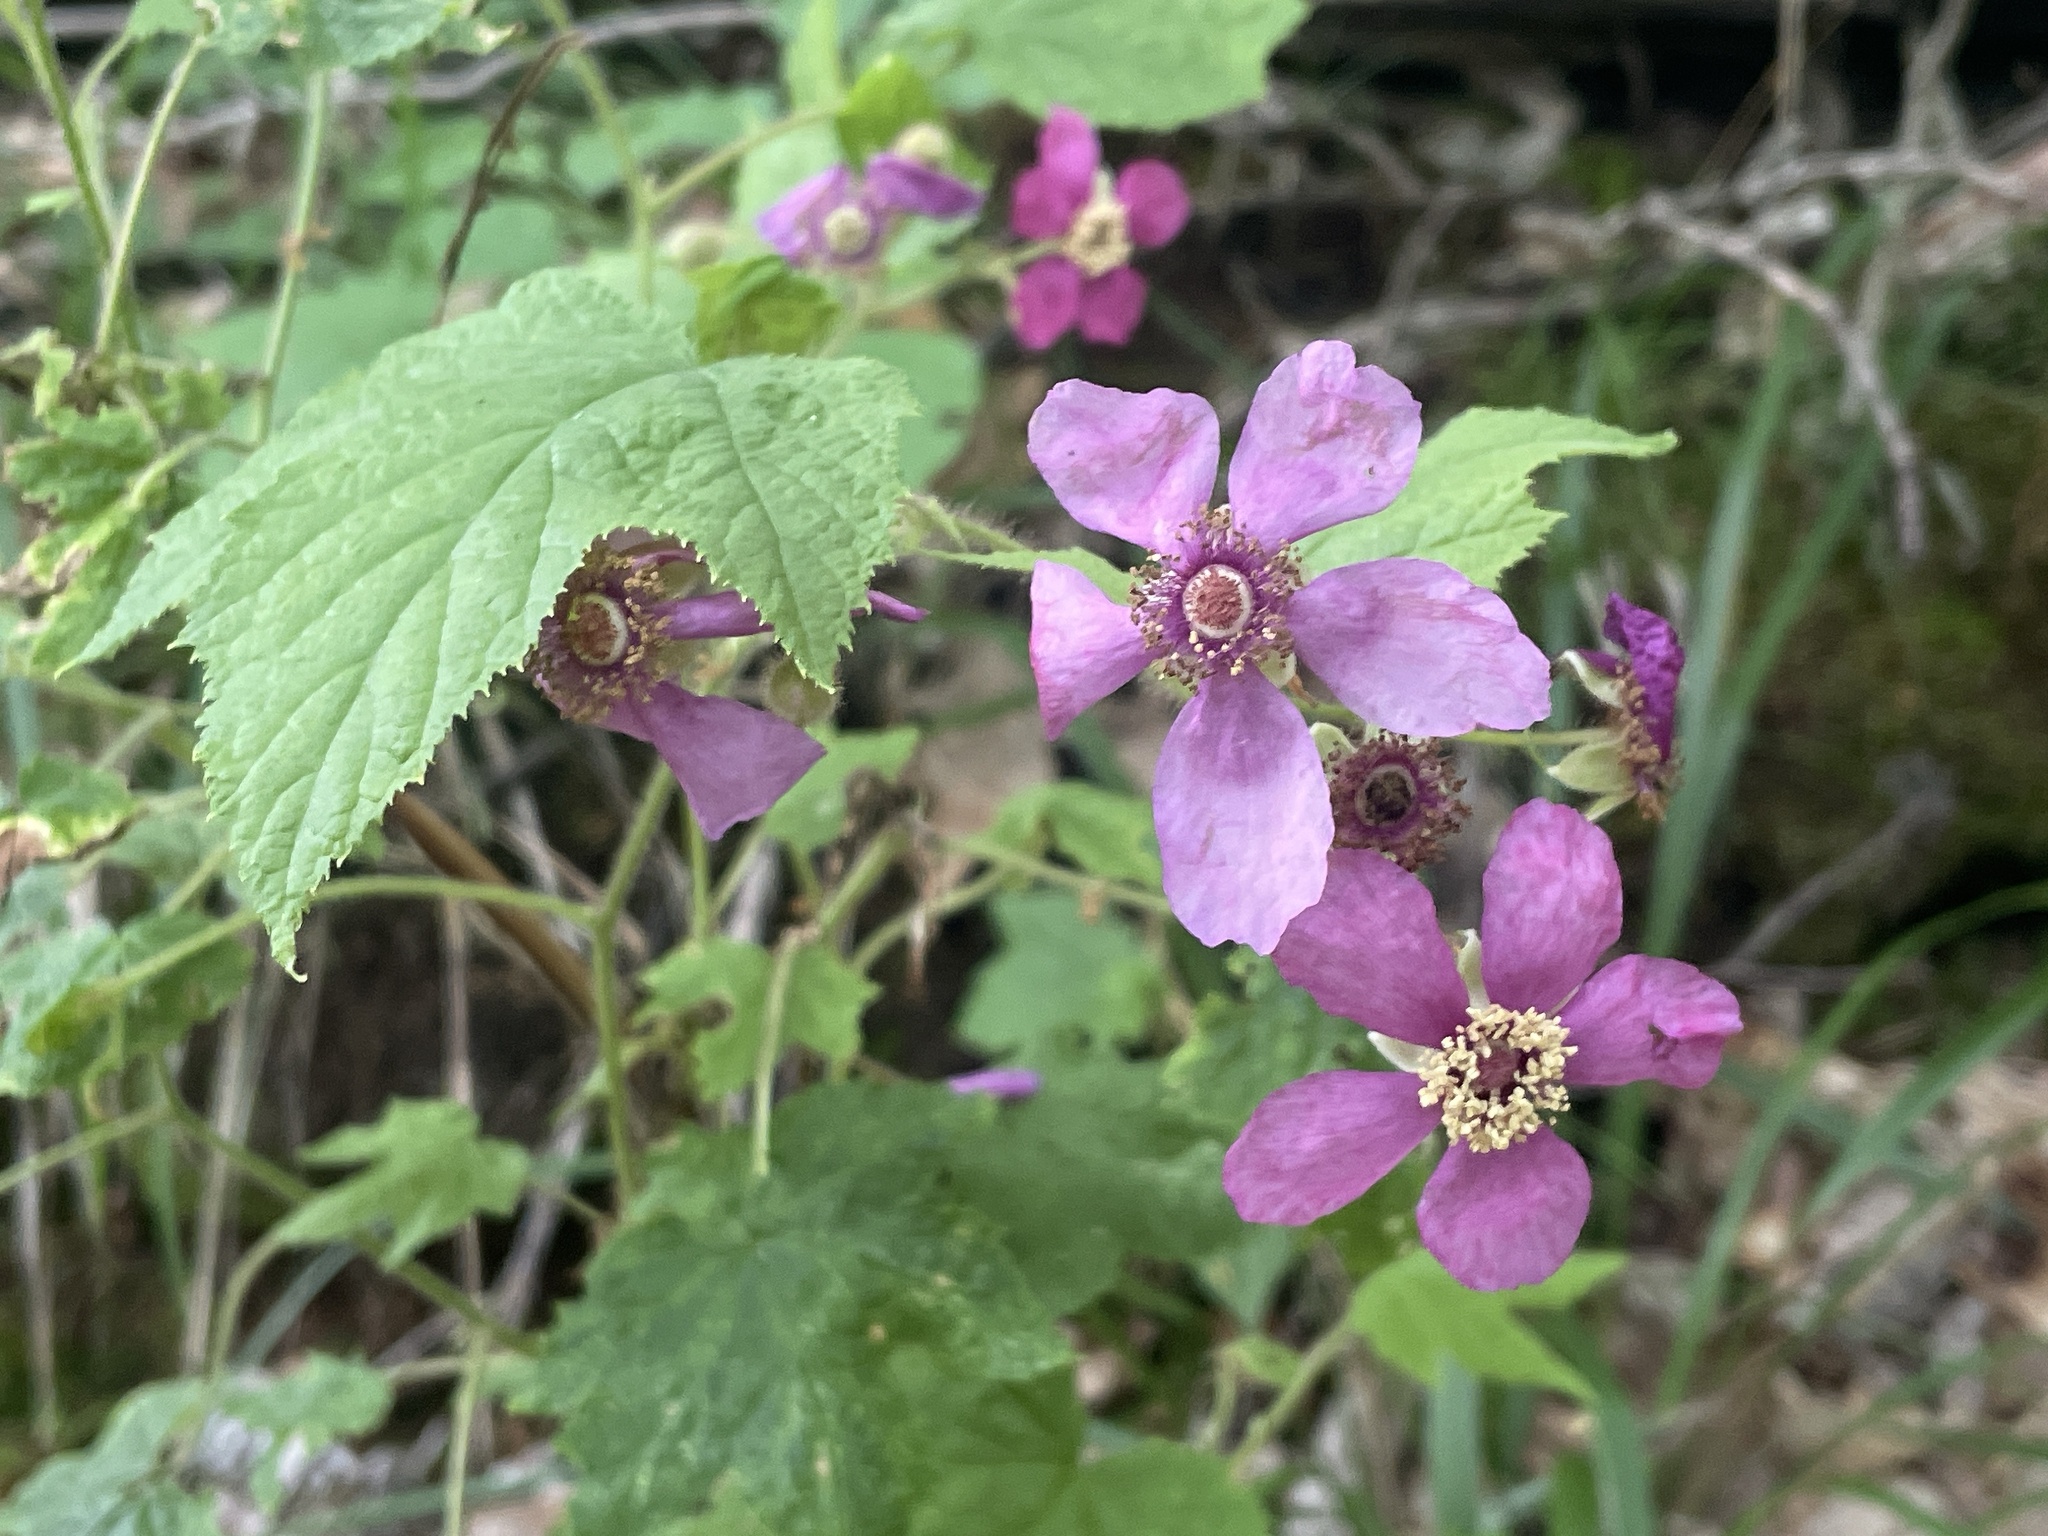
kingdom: Plantae
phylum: Tracheophyta
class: Magnoliopsida
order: Rosales
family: Rosaceae
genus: Rubus
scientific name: Rubus odoratus
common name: Purple-flowered raspberry
